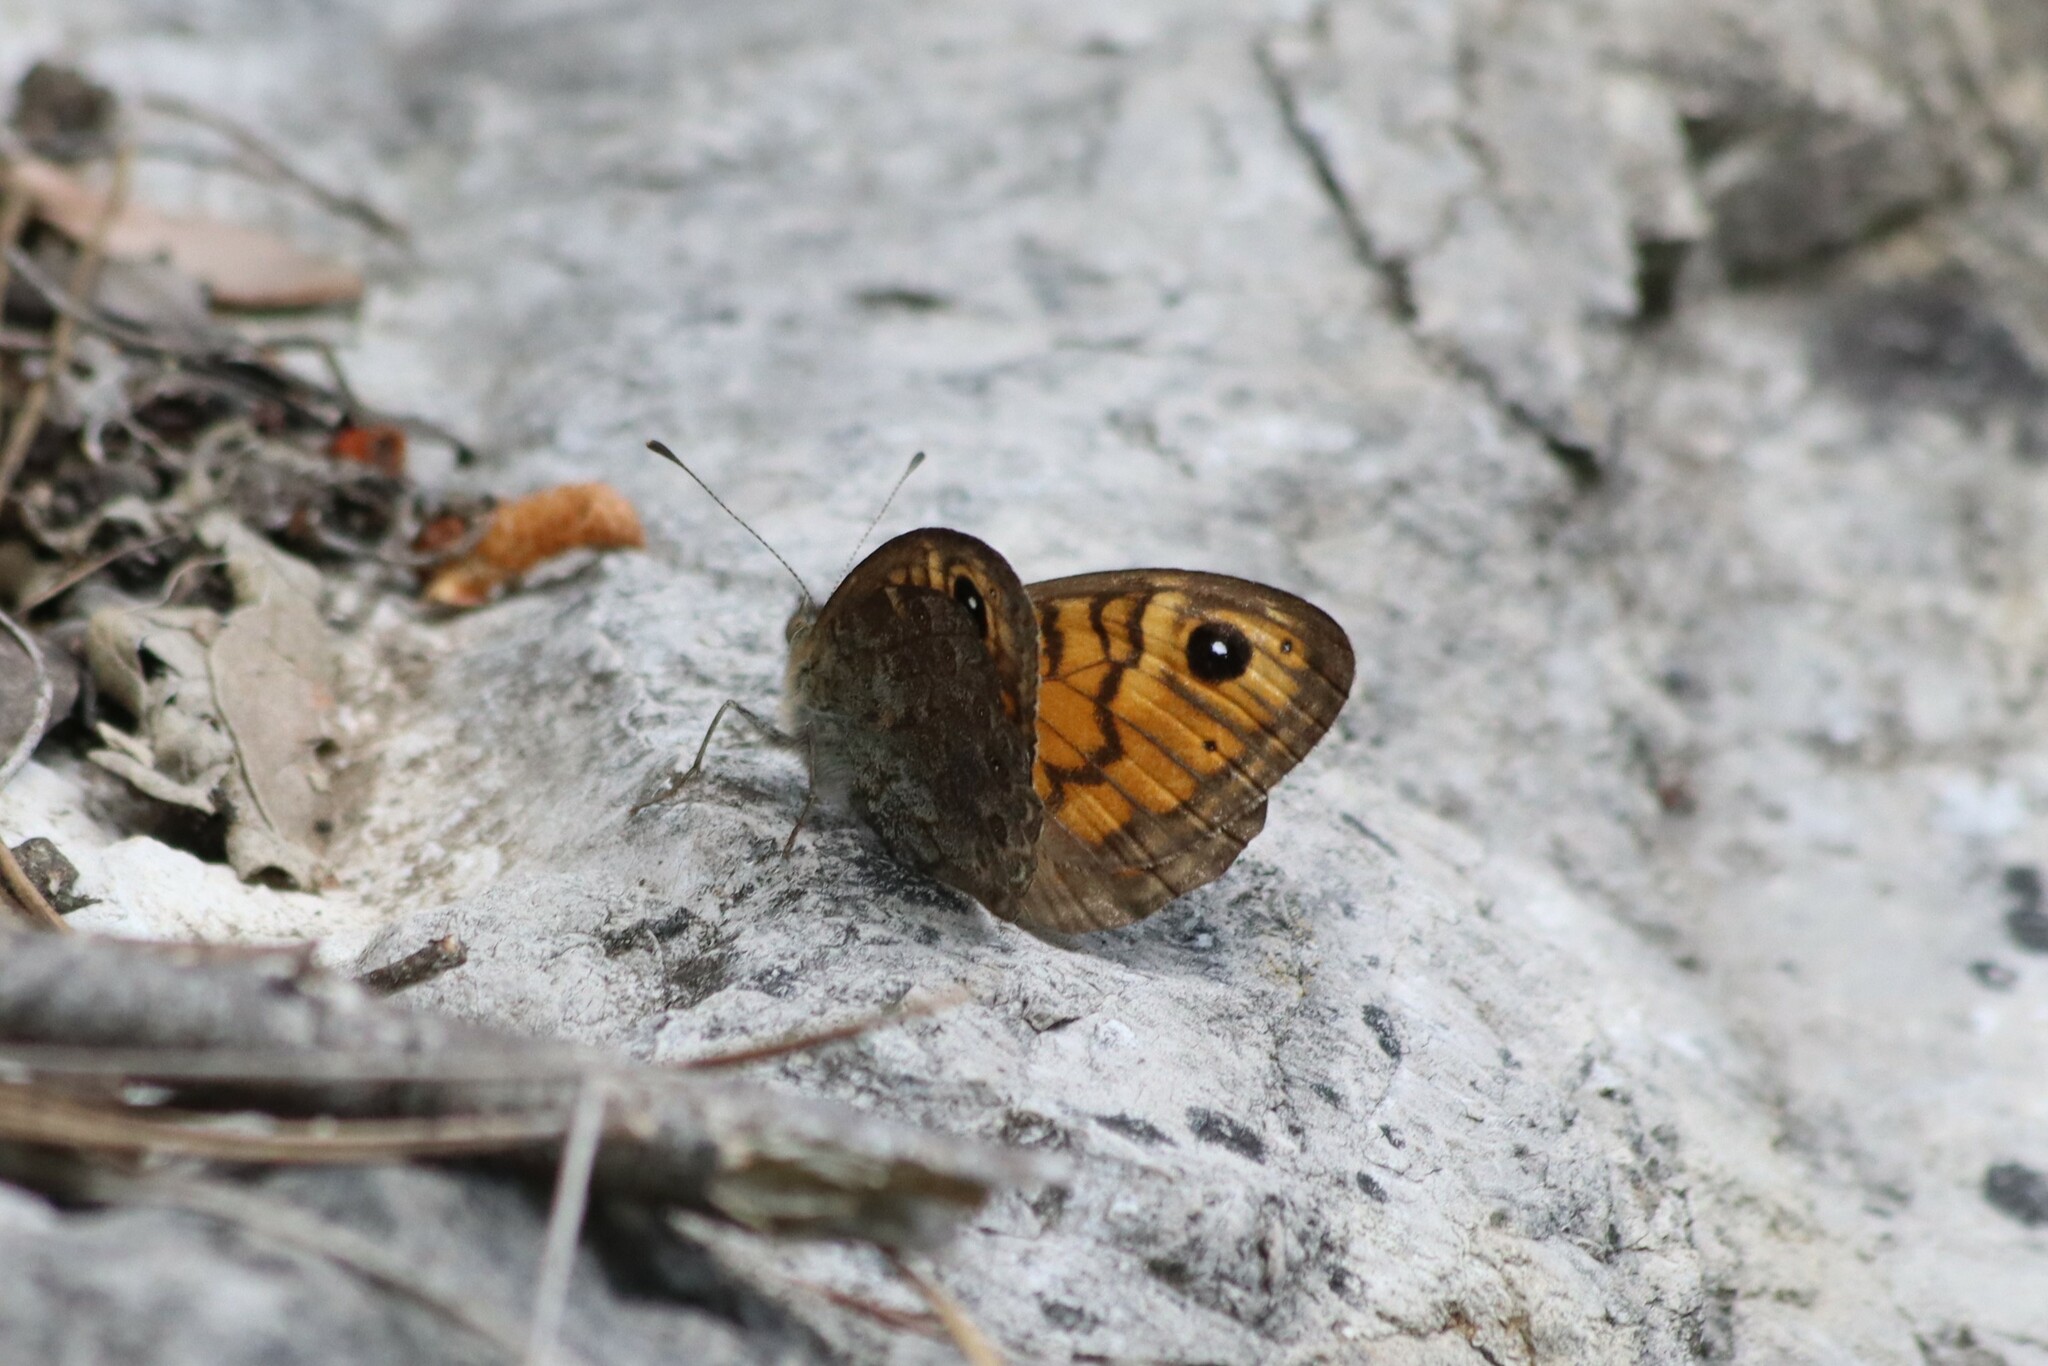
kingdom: Animalia
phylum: Arthropoda
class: Insecta
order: Lepidoptera
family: Nymphalidae
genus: Pararge
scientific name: Pararge Lasiommata megera
